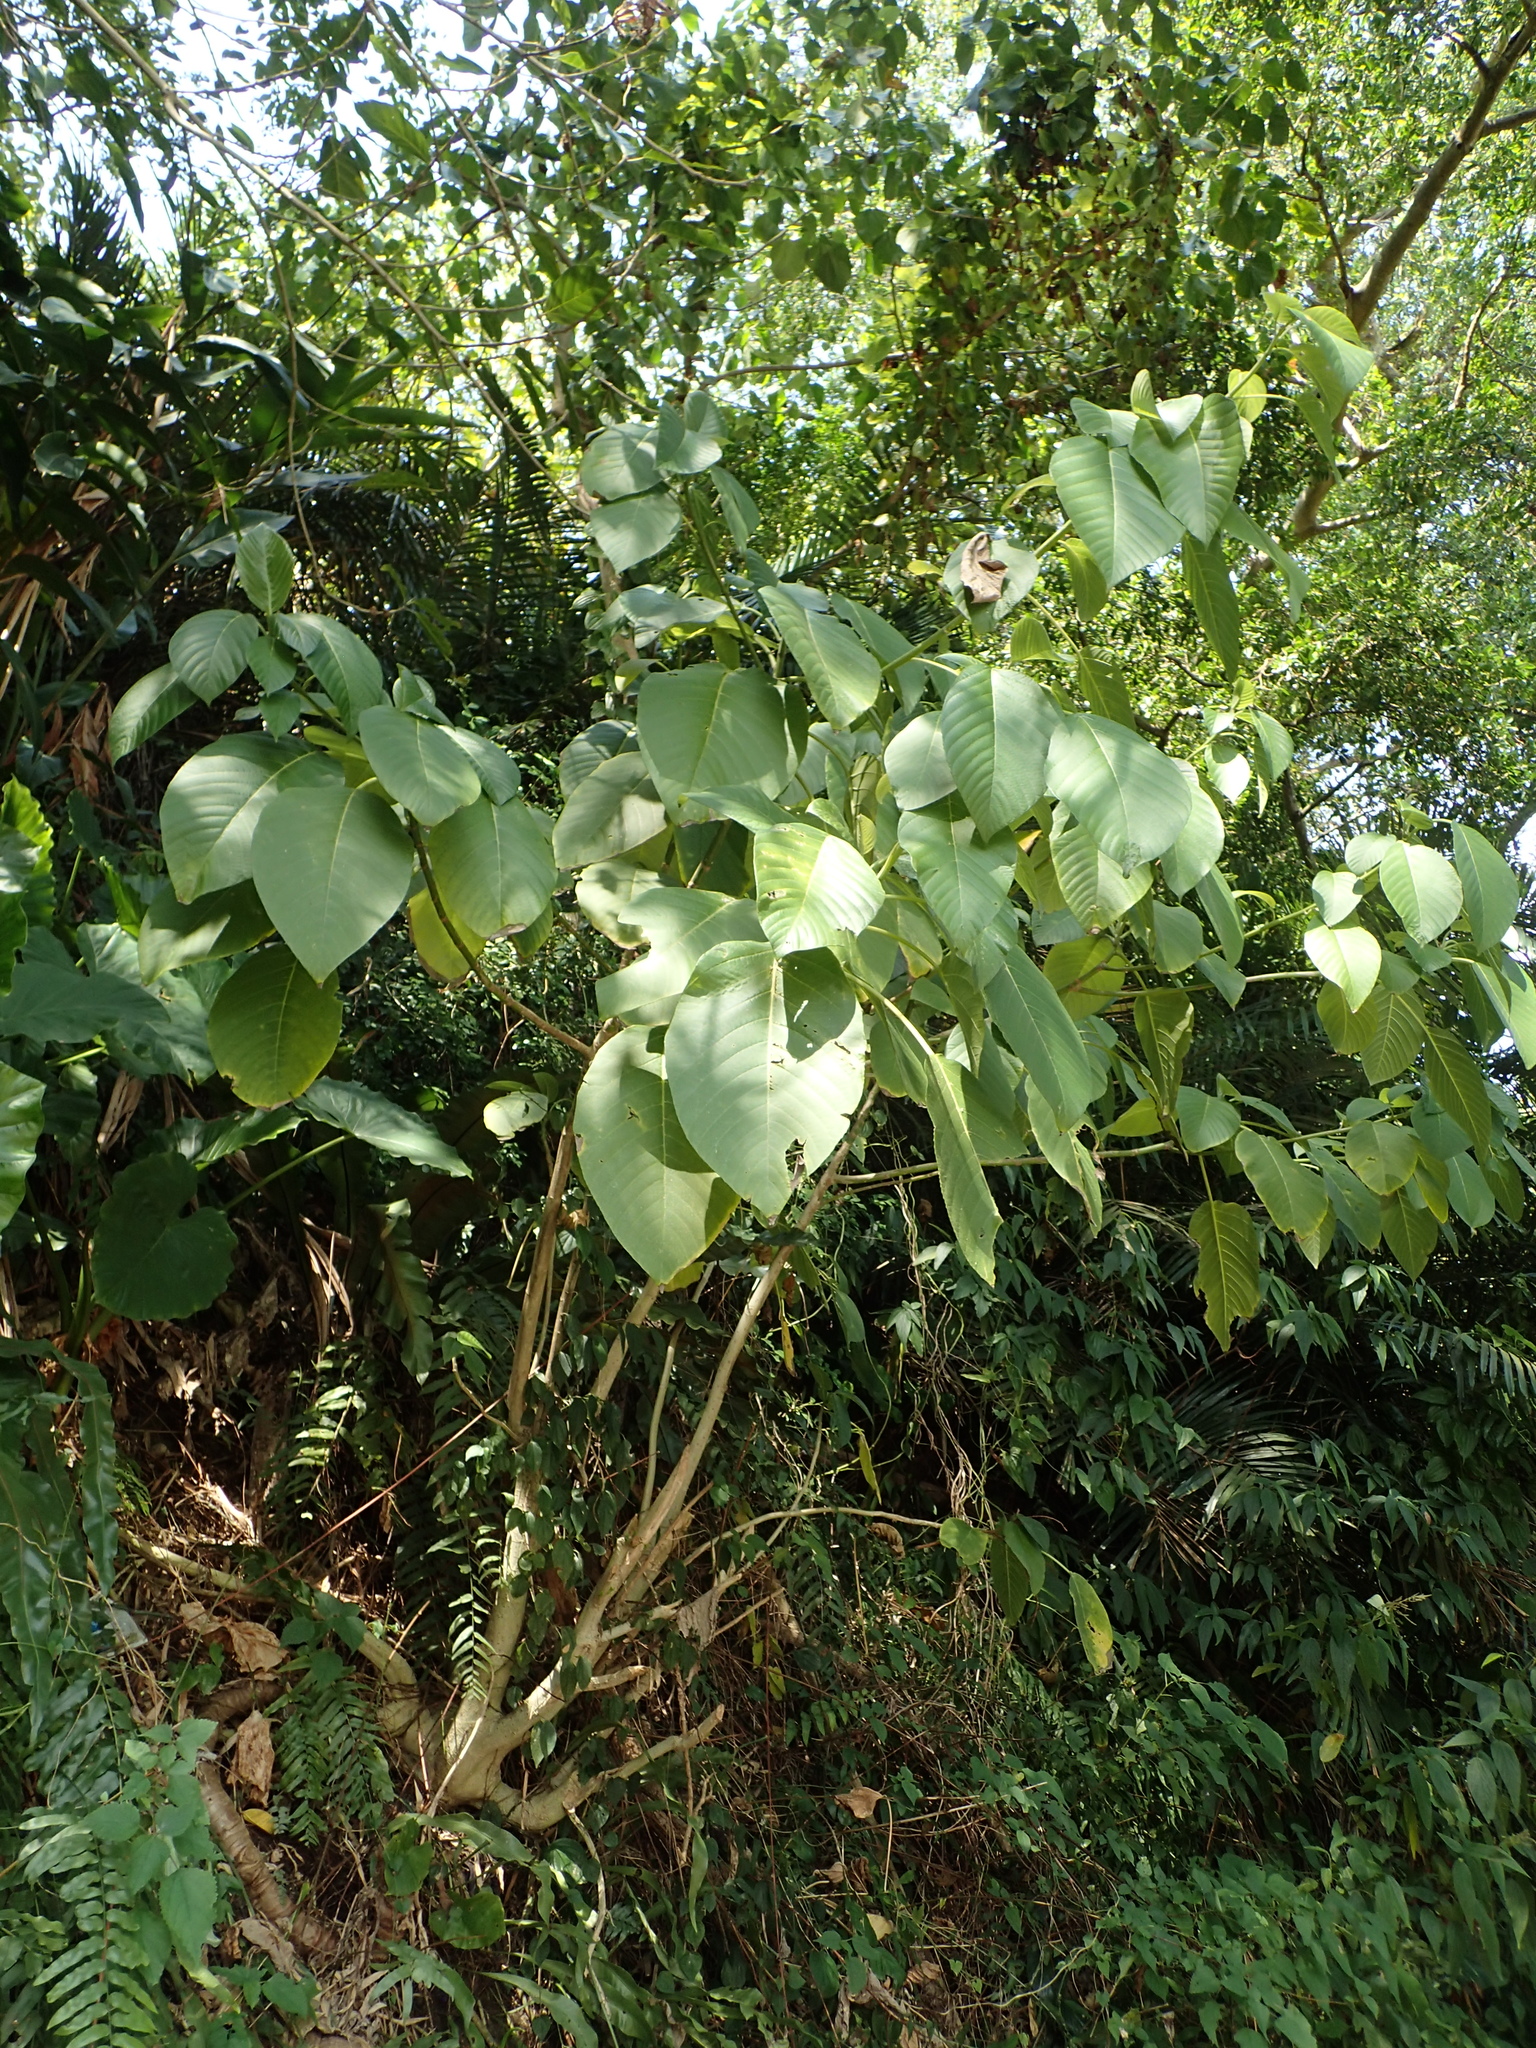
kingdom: Plantae
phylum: Tracheophyta
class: Magnoliopsida
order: Rosales
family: Urticaceae
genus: Dendrocnide
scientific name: Dendrocnide meyeniana
